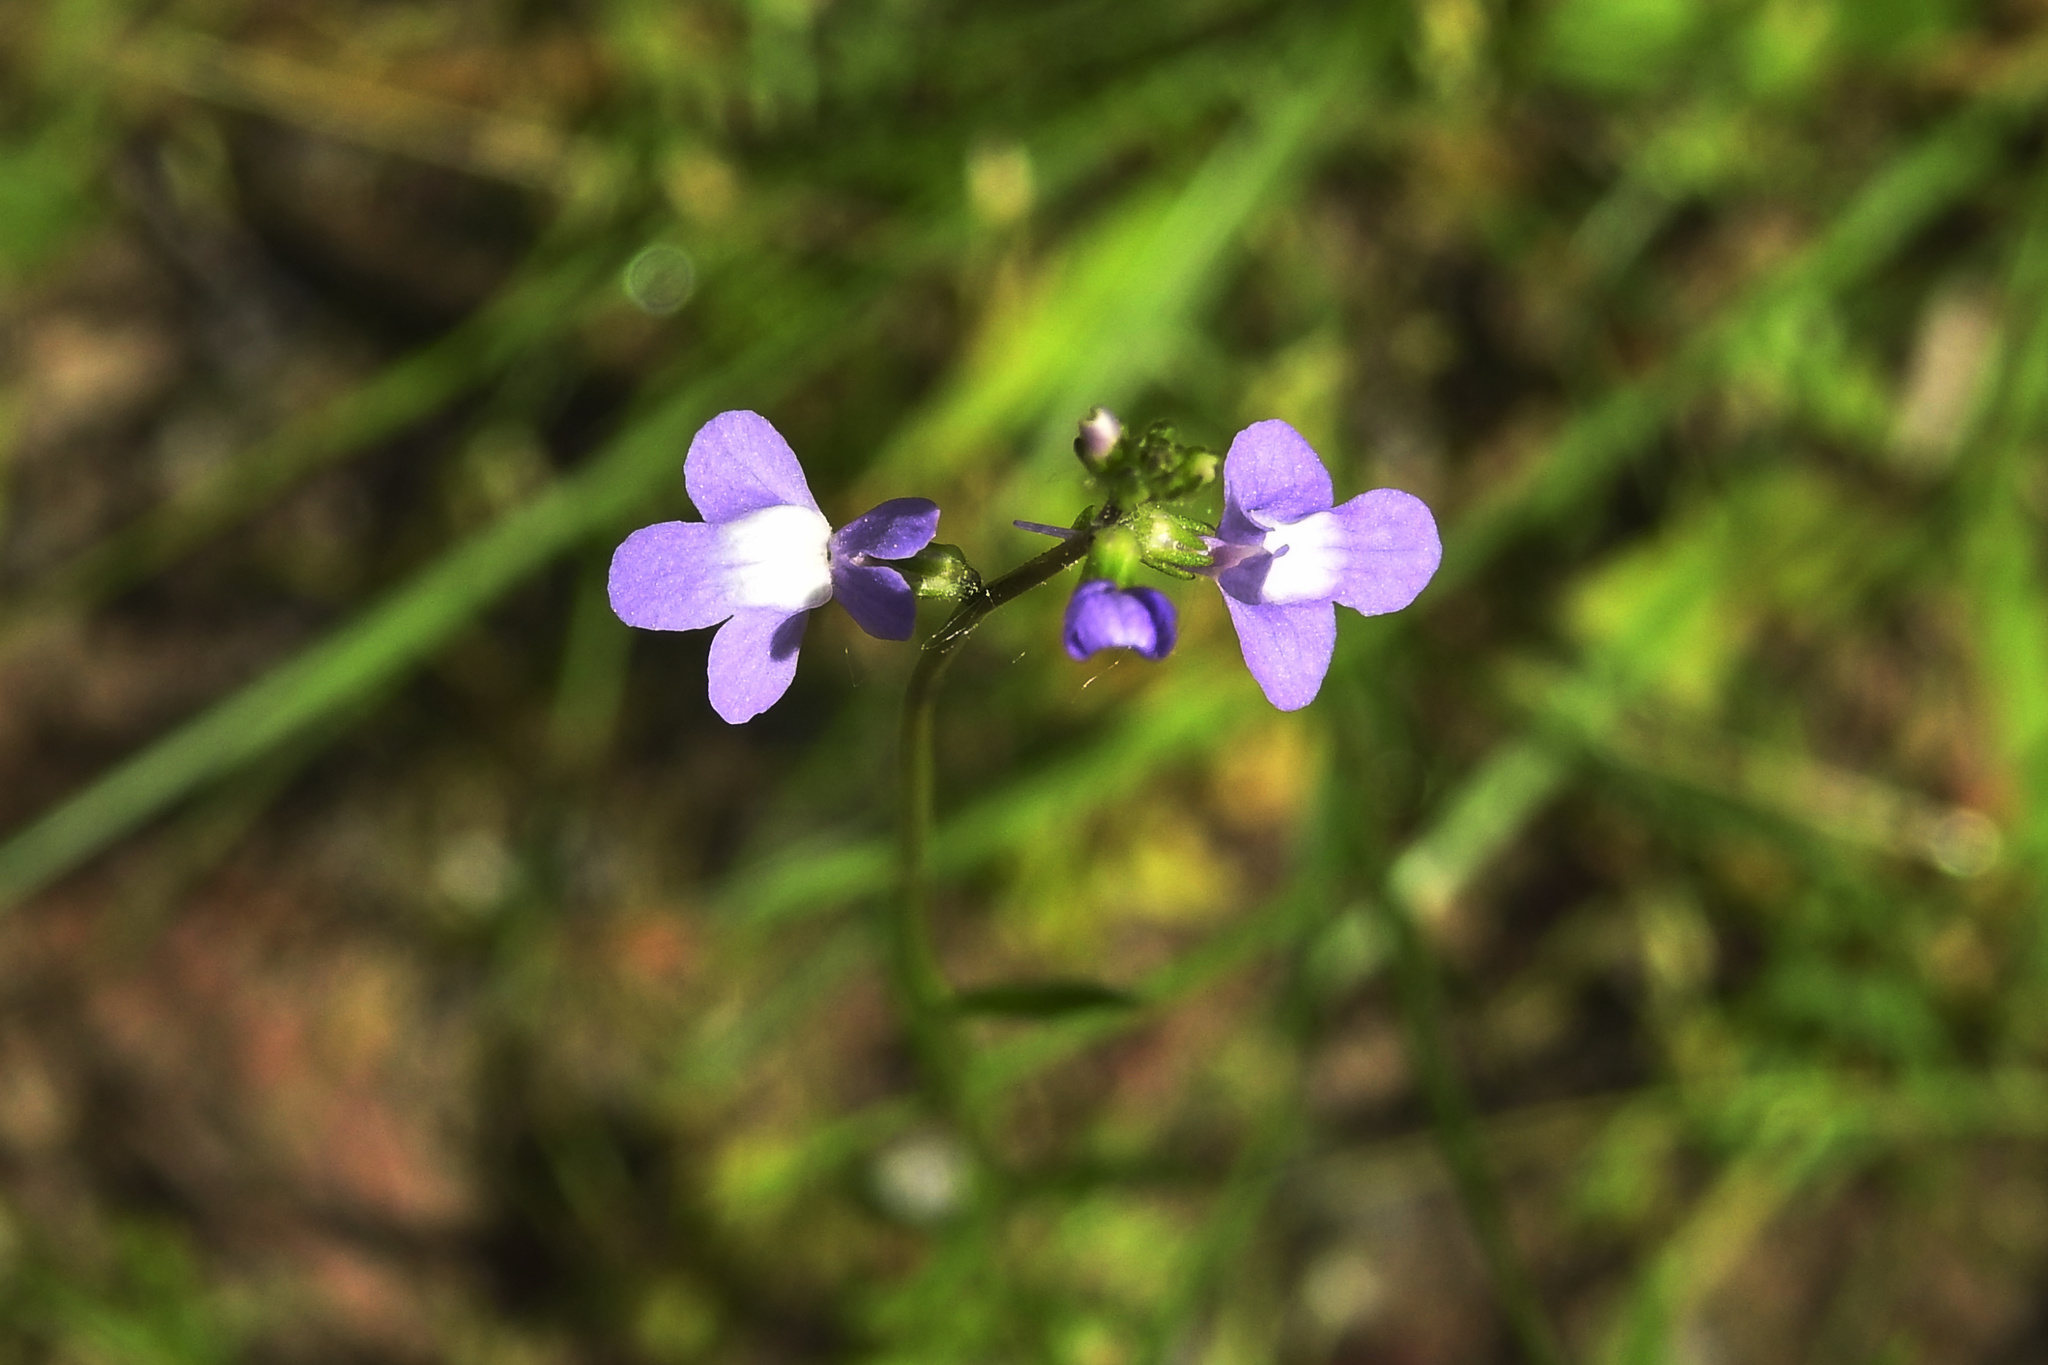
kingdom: Plantae
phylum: Tracheophyta
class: Magnoliopsida
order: Lamiales
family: Plantaginaceae
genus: Nuttallanthus
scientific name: Nuttallanthus canadensis
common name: Blue toadflax
